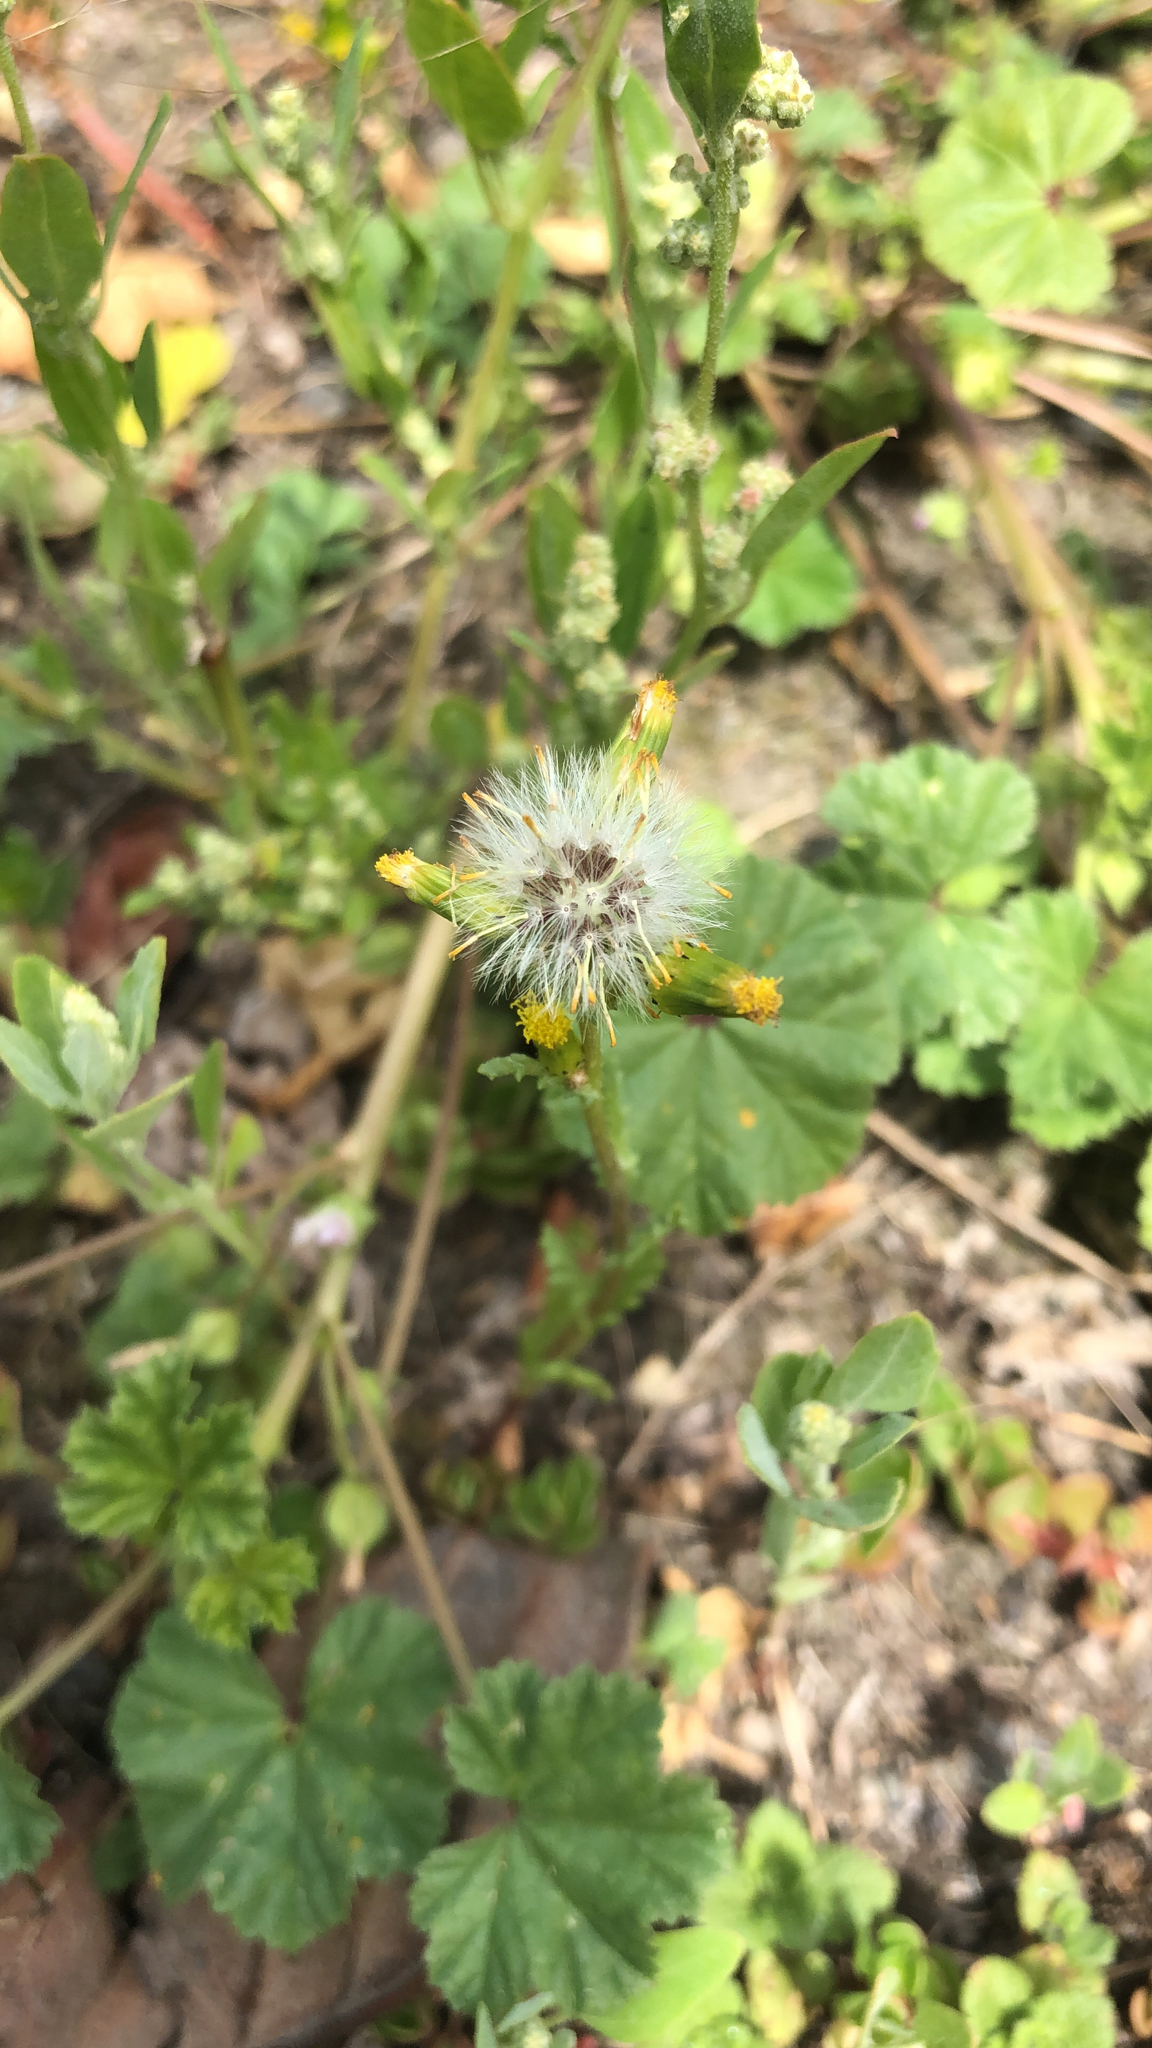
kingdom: Plantae
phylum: Tracheophyta
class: Magnoliopsida
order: Asterales
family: Asteraceae
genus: Senecio
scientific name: Senecio vulgaris
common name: Old-man-in-the-spring
